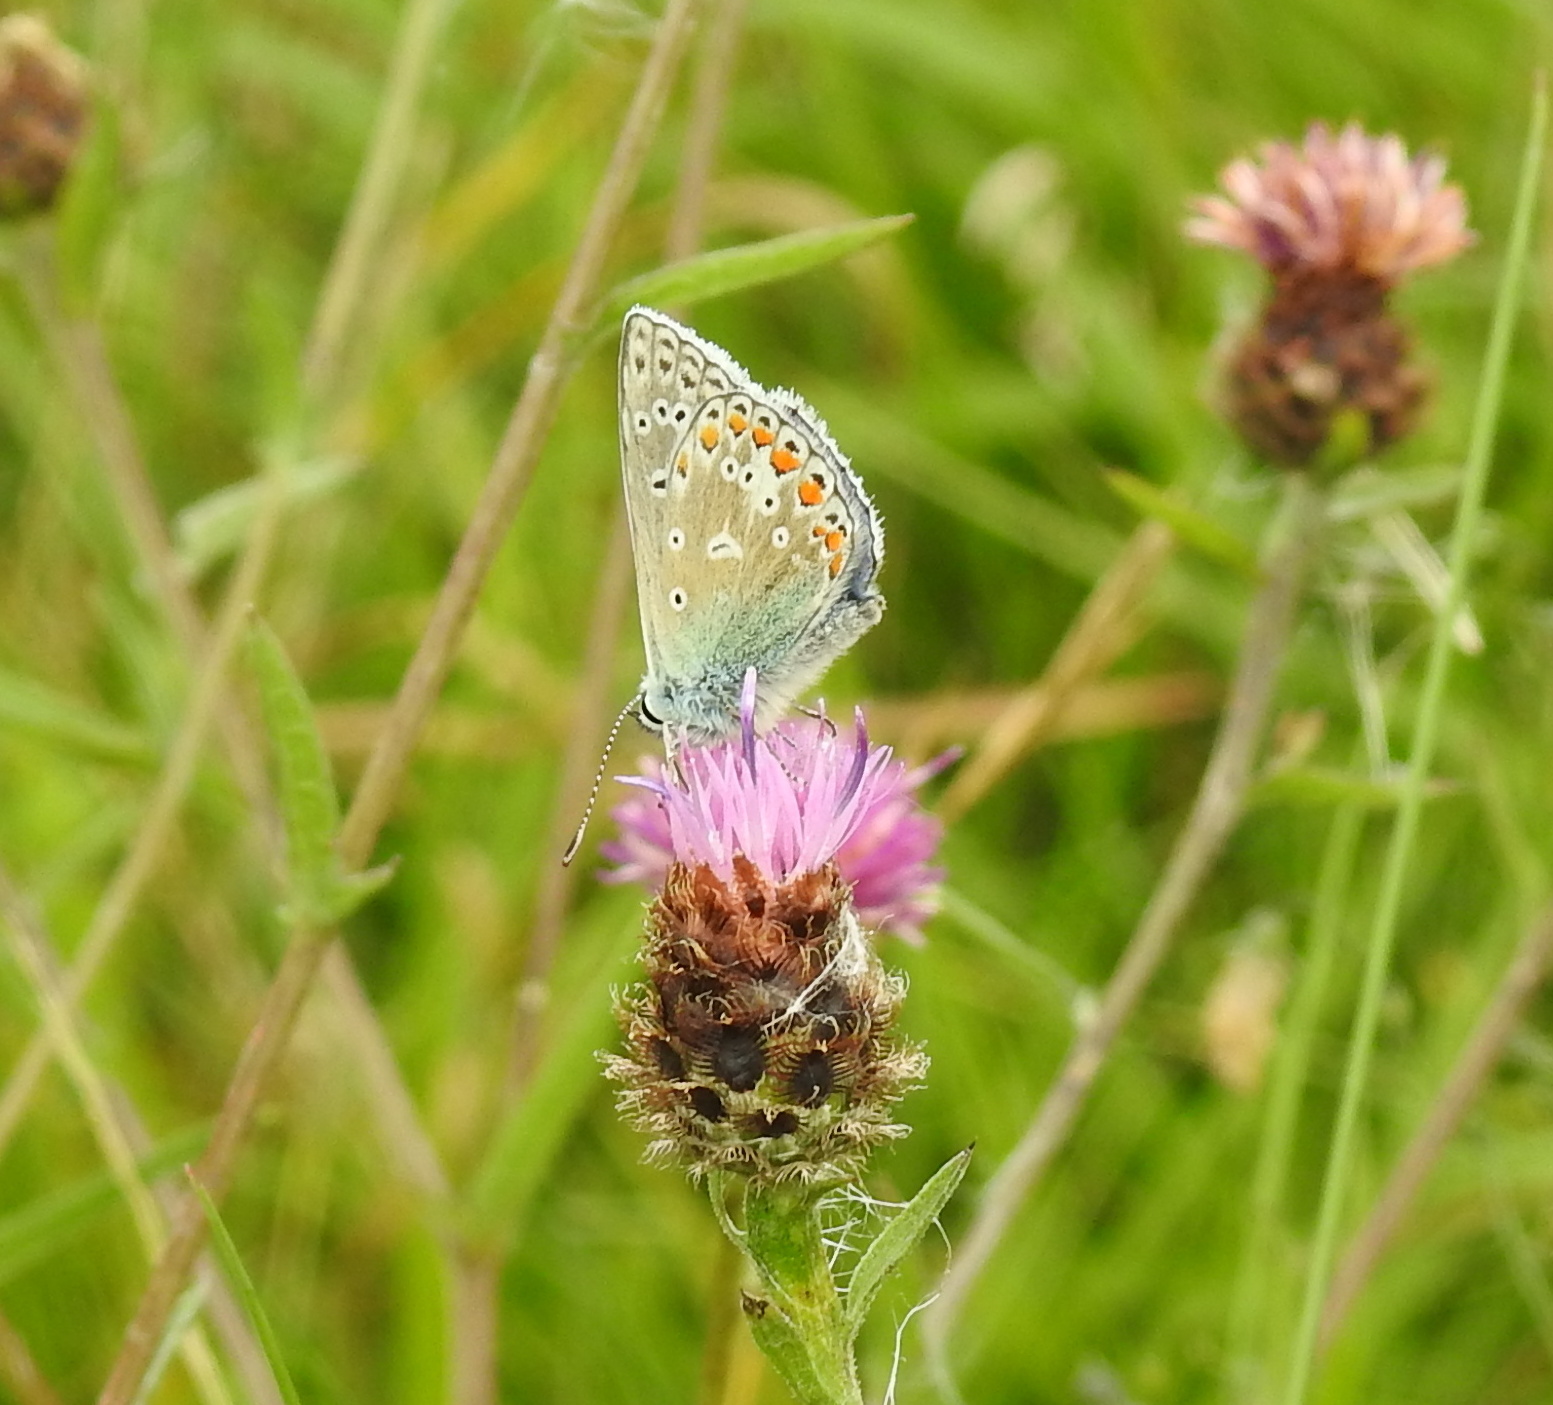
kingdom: Animalia
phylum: Arthropoda
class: Insecta
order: Lepidoptera
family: Lycaenidae
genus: Polyommatus
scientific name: Polyommatus icarus
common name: Common blue
